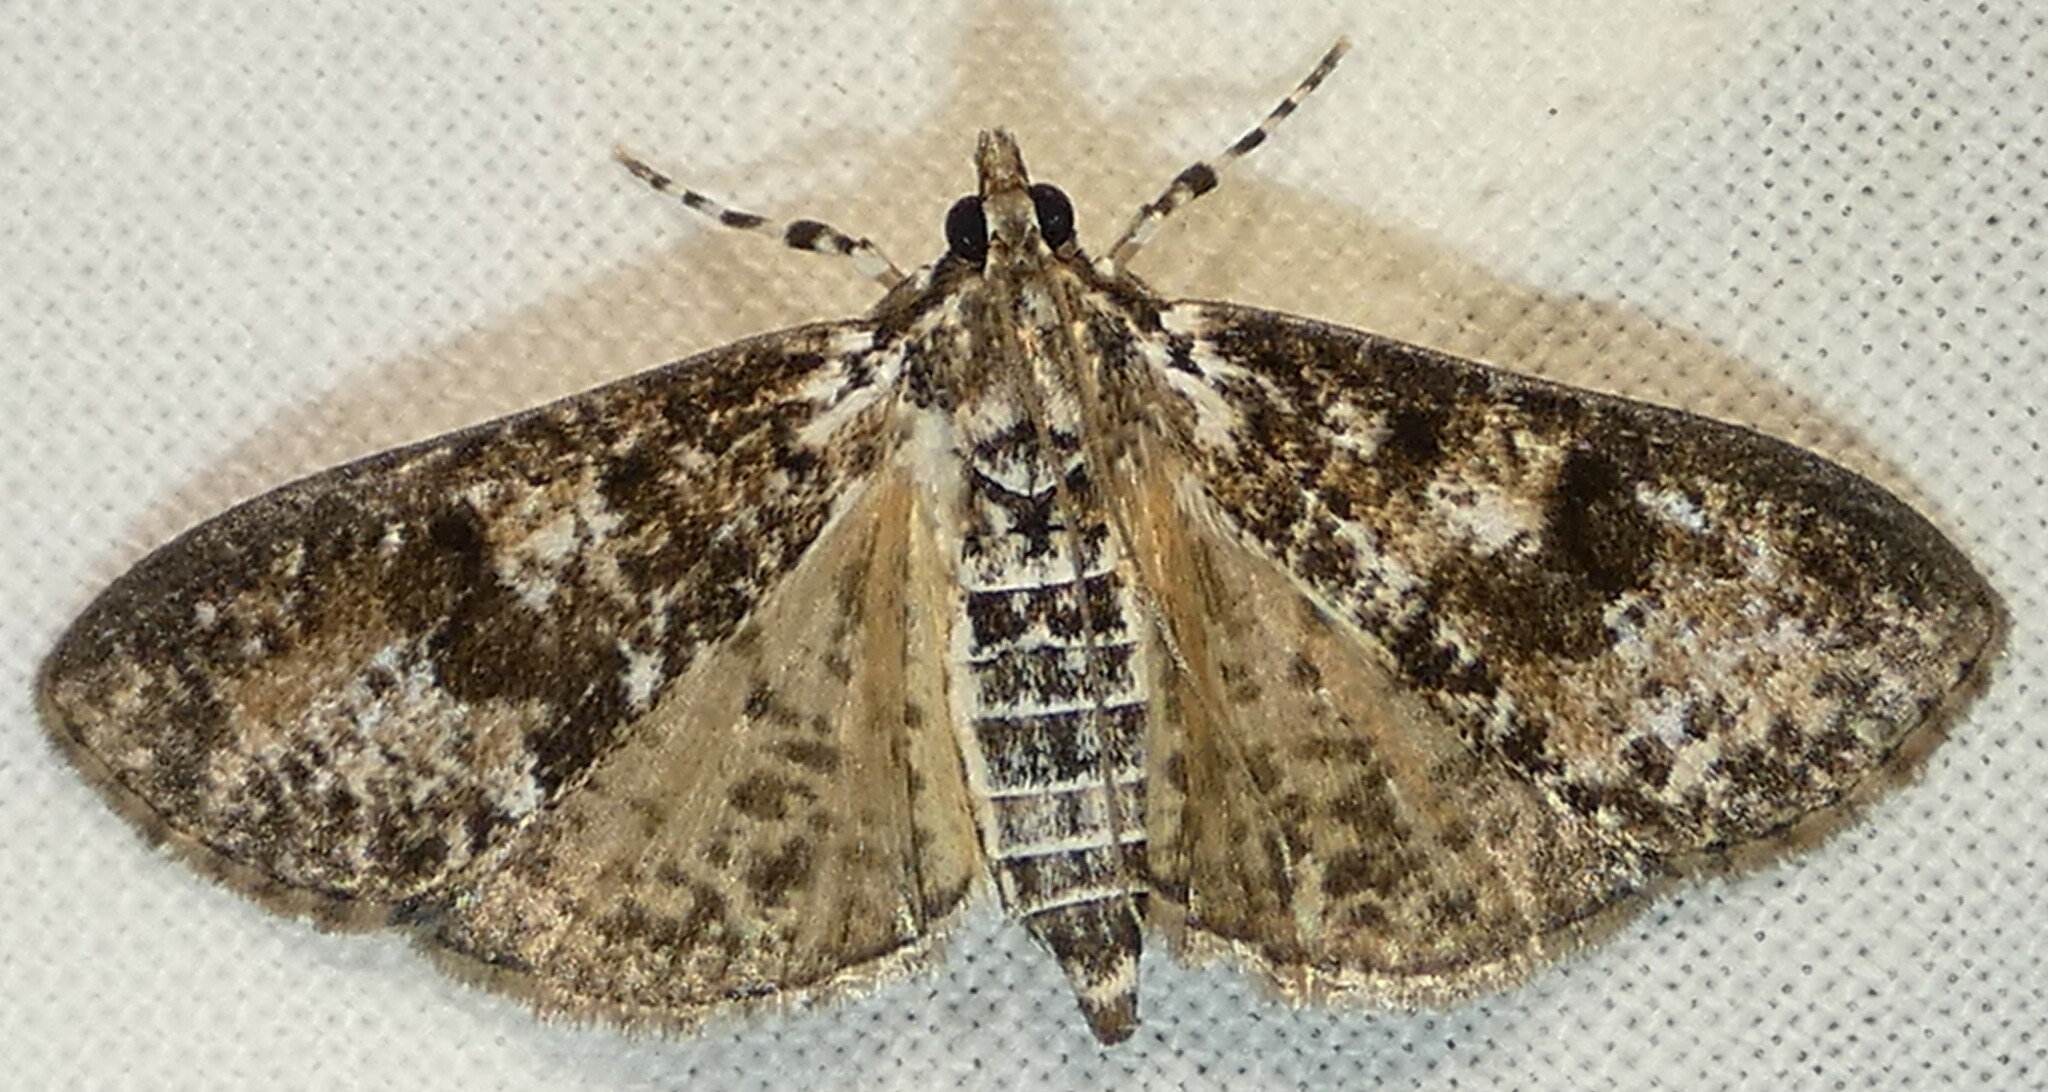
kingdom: Animalia
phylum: Arthropoda
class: Insecta
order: Lepidoptera
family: Crambidae
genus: Palpita
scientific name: Palpita magniferalis
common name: Splendid palpita moth
